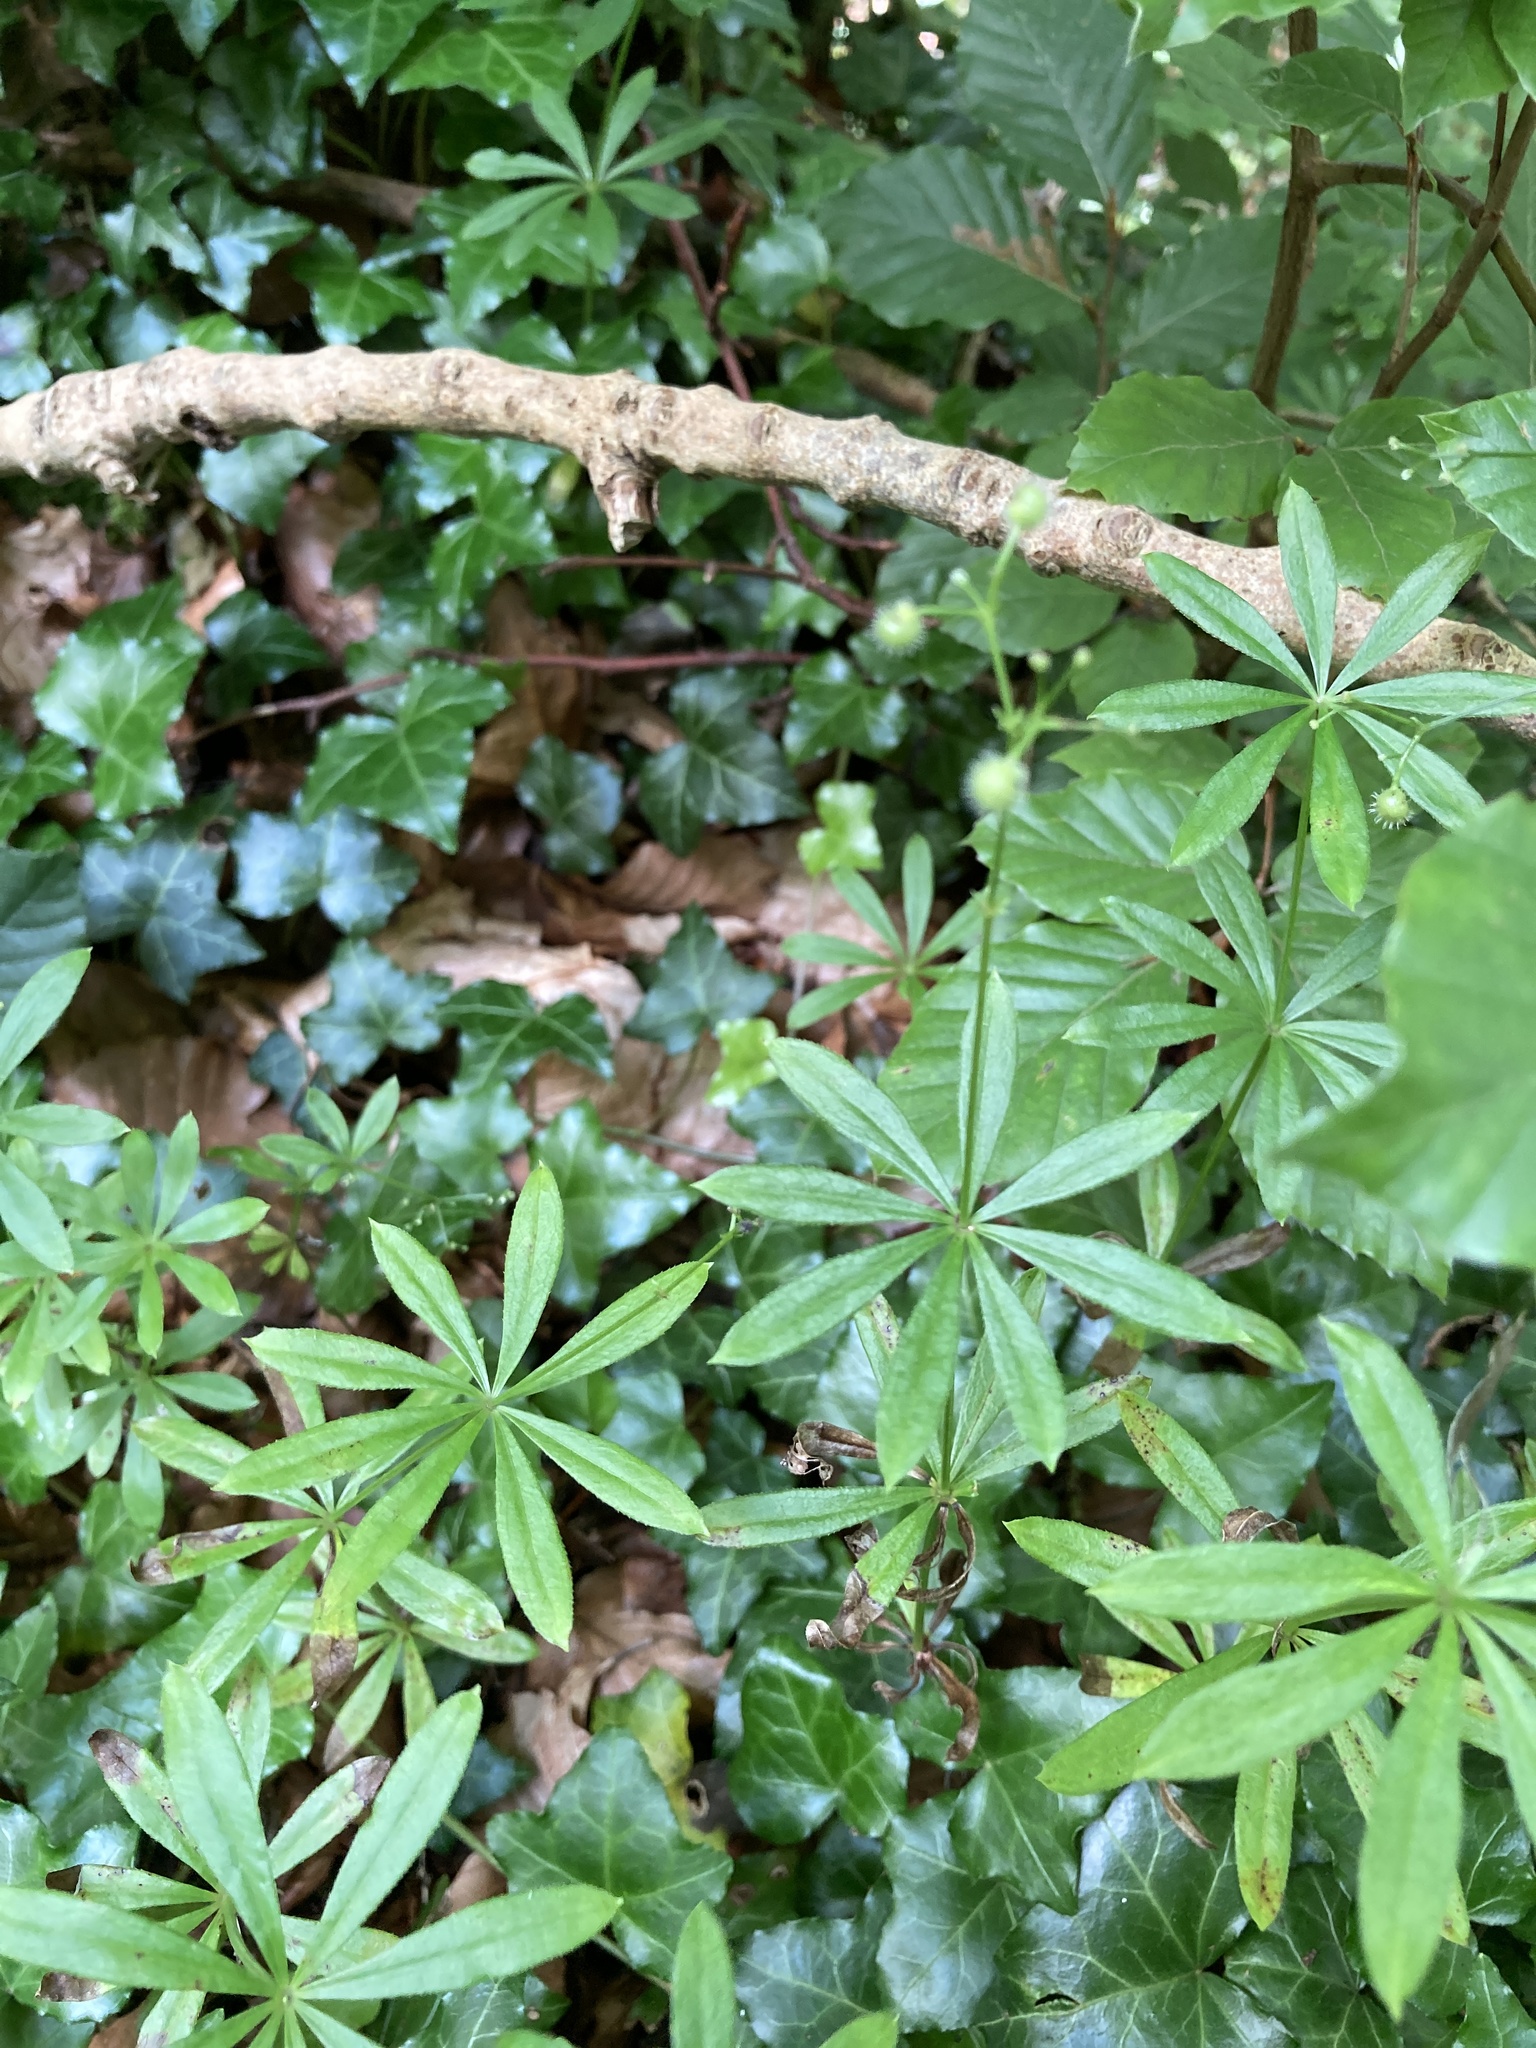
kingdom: Plantae
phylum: Tracheophyta
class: Magnoliopsida
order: Gentianales
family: Rubiaceae
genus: Galium
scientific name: Galium odoratum
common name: Sweet woodruff
